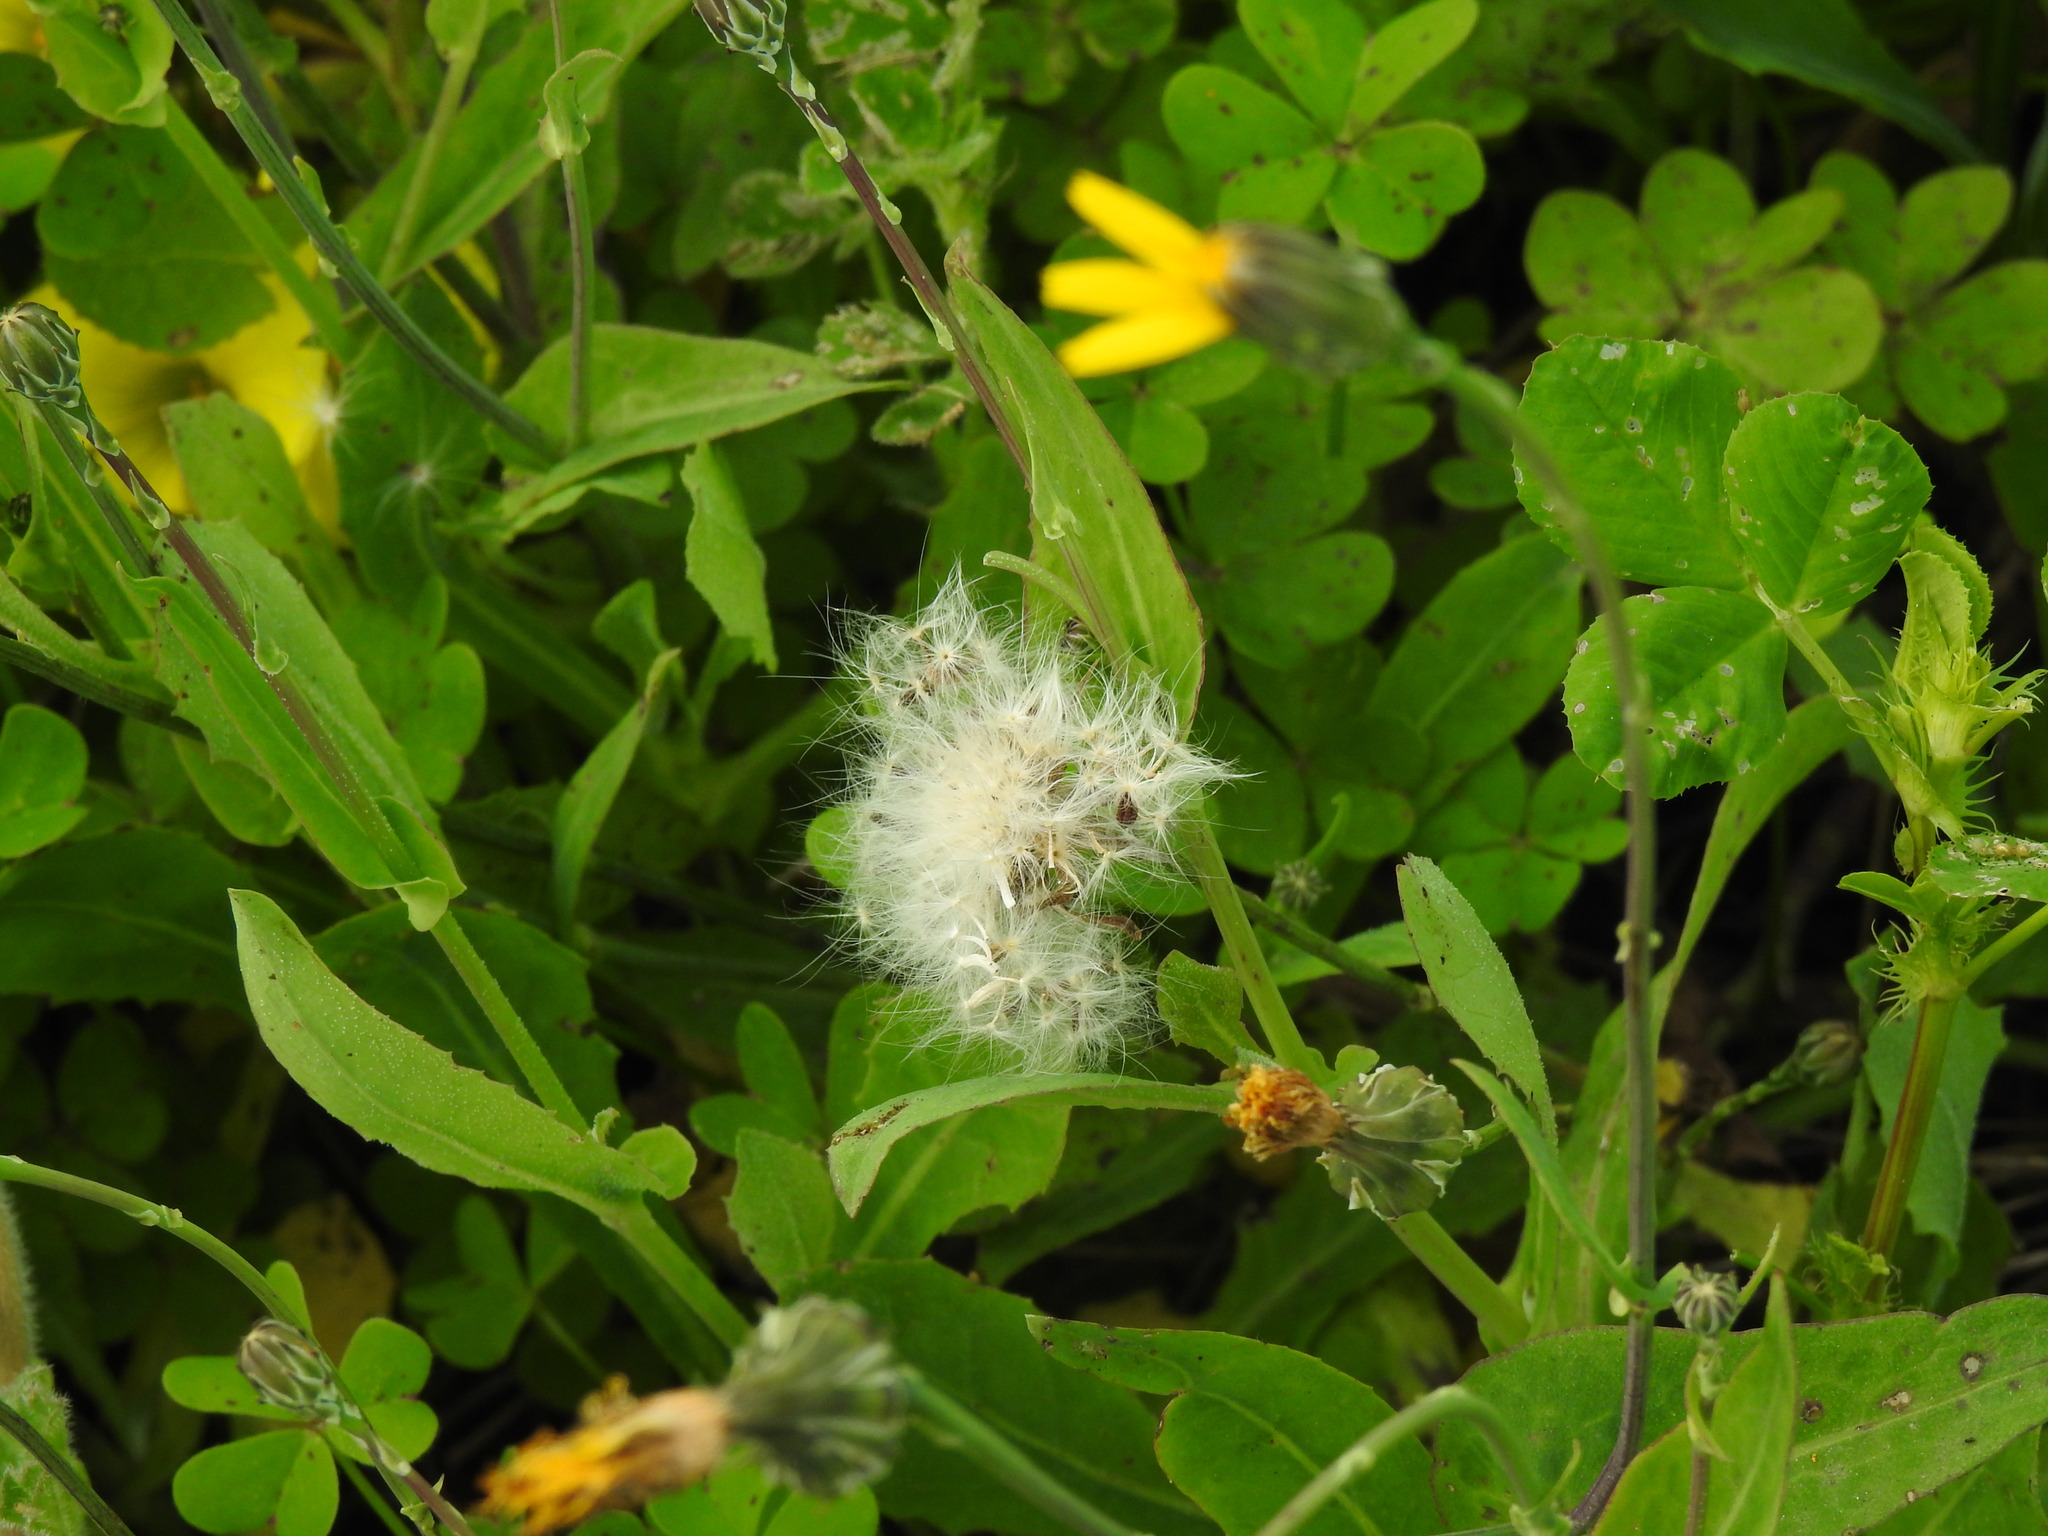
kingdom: Plantae
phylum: Tracheophyta
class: Magnoliopsida
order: Asterales
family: Asteraceae
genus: Reichardia
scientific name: Reichardia picroides
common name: Common brighteyes
